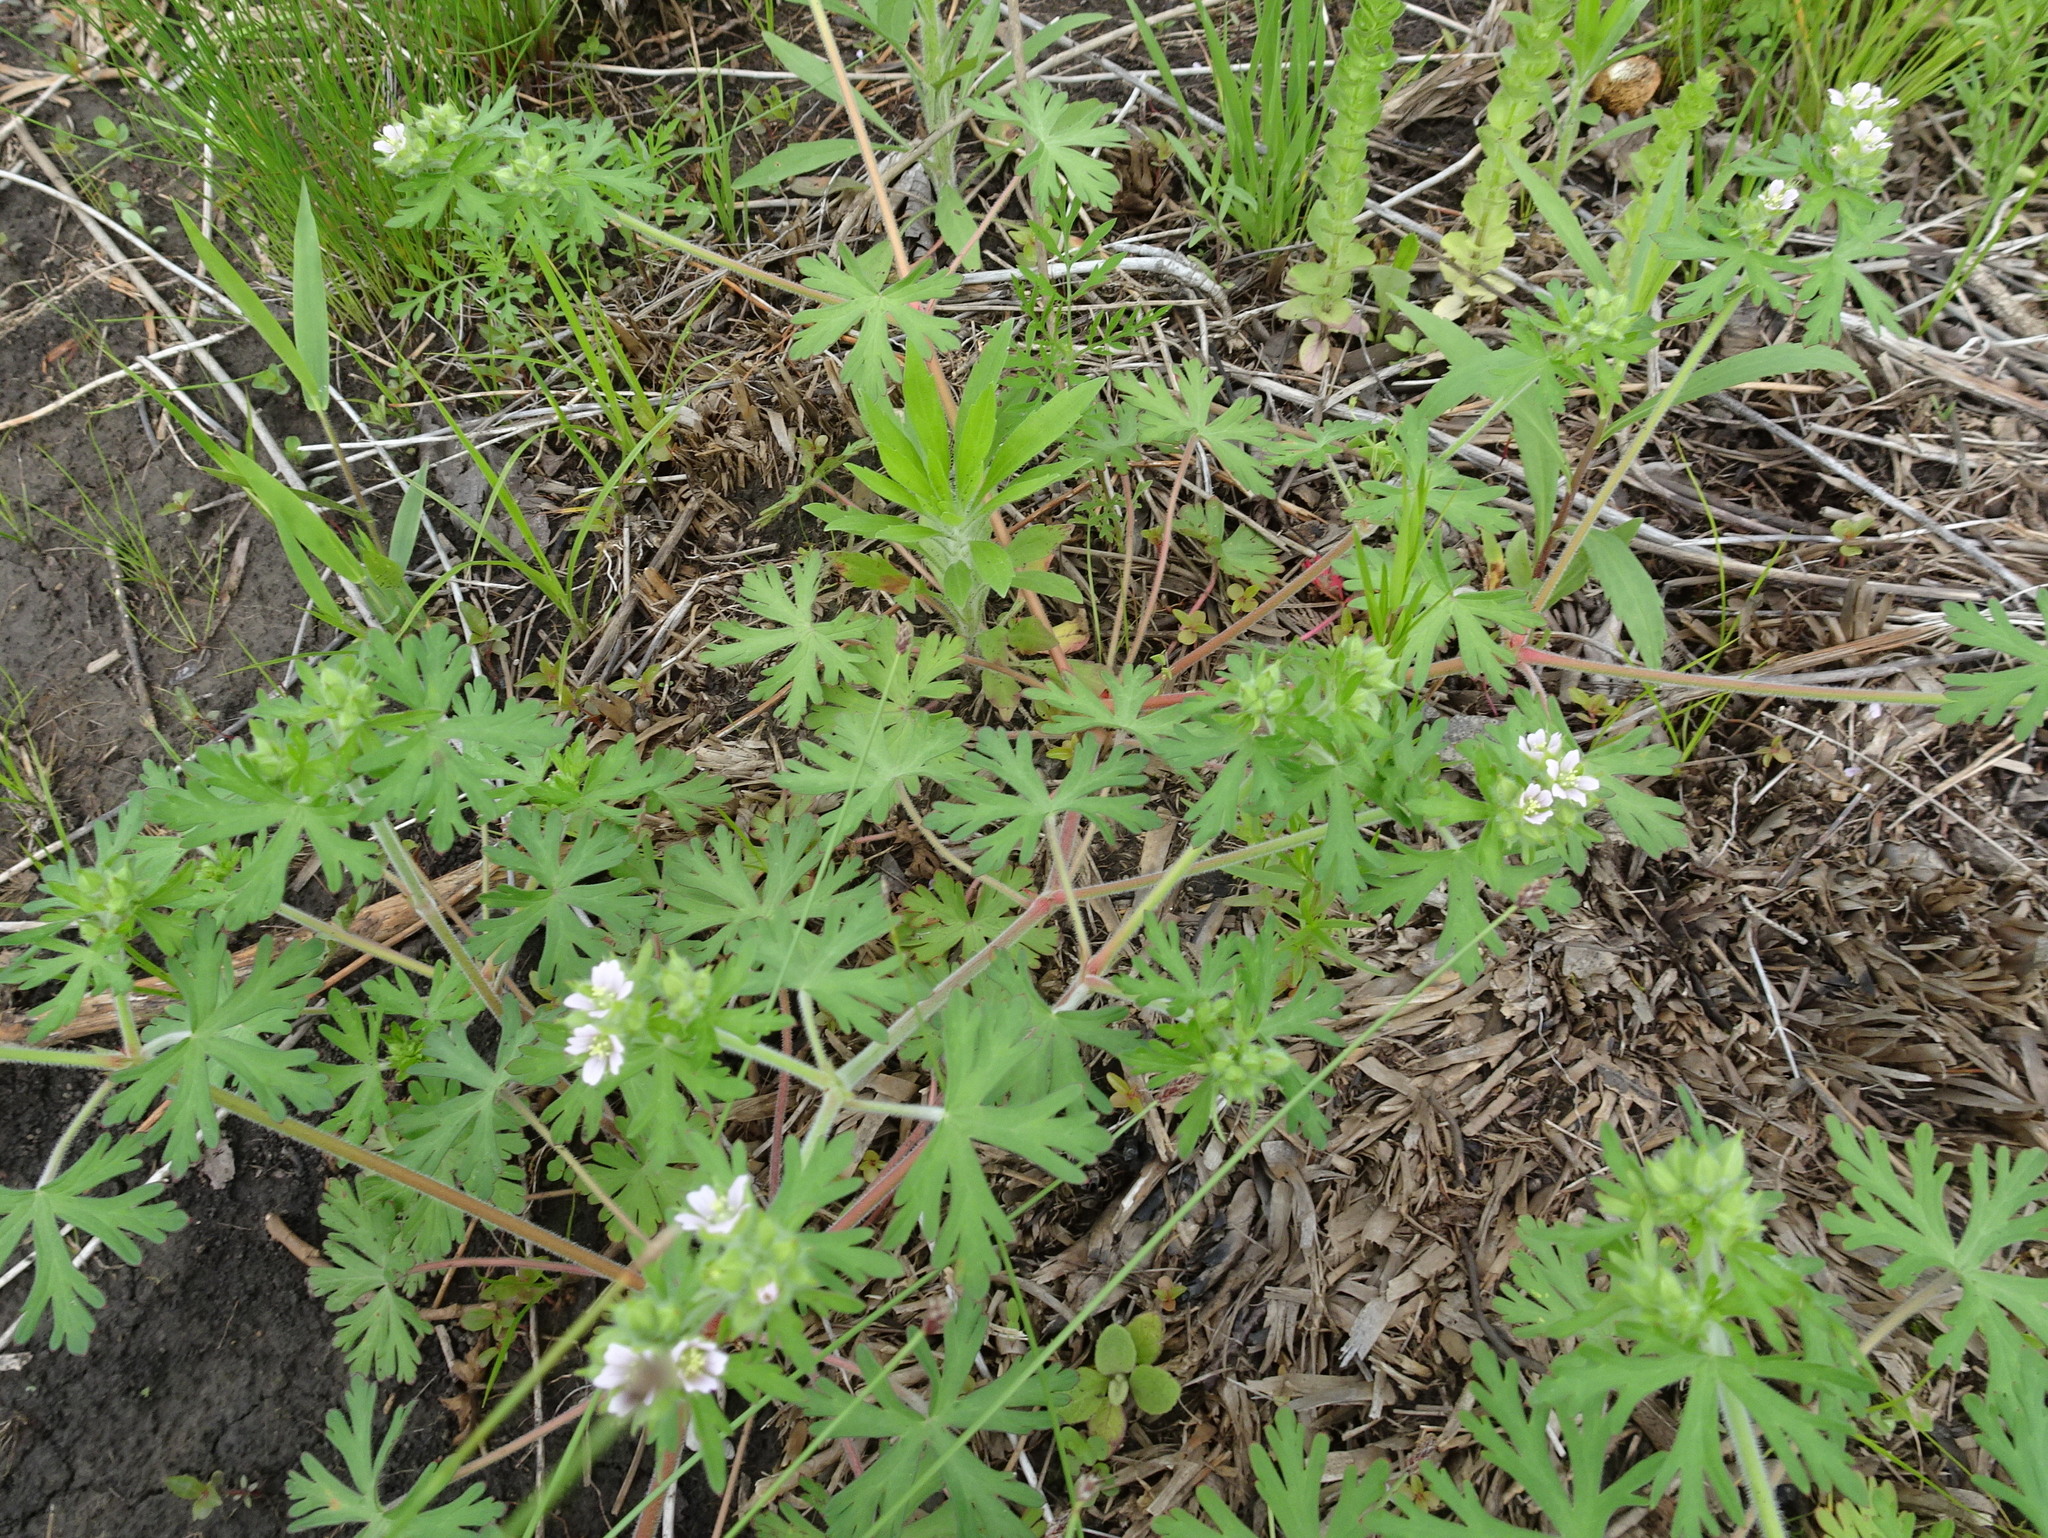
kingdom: Plantae
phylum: Tracheophyta
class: Magnoliopsida
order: Geraniales
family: Geraniaceae
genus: Geranium
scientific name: Geranium carolinianum
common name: Carolina crane's-bill
